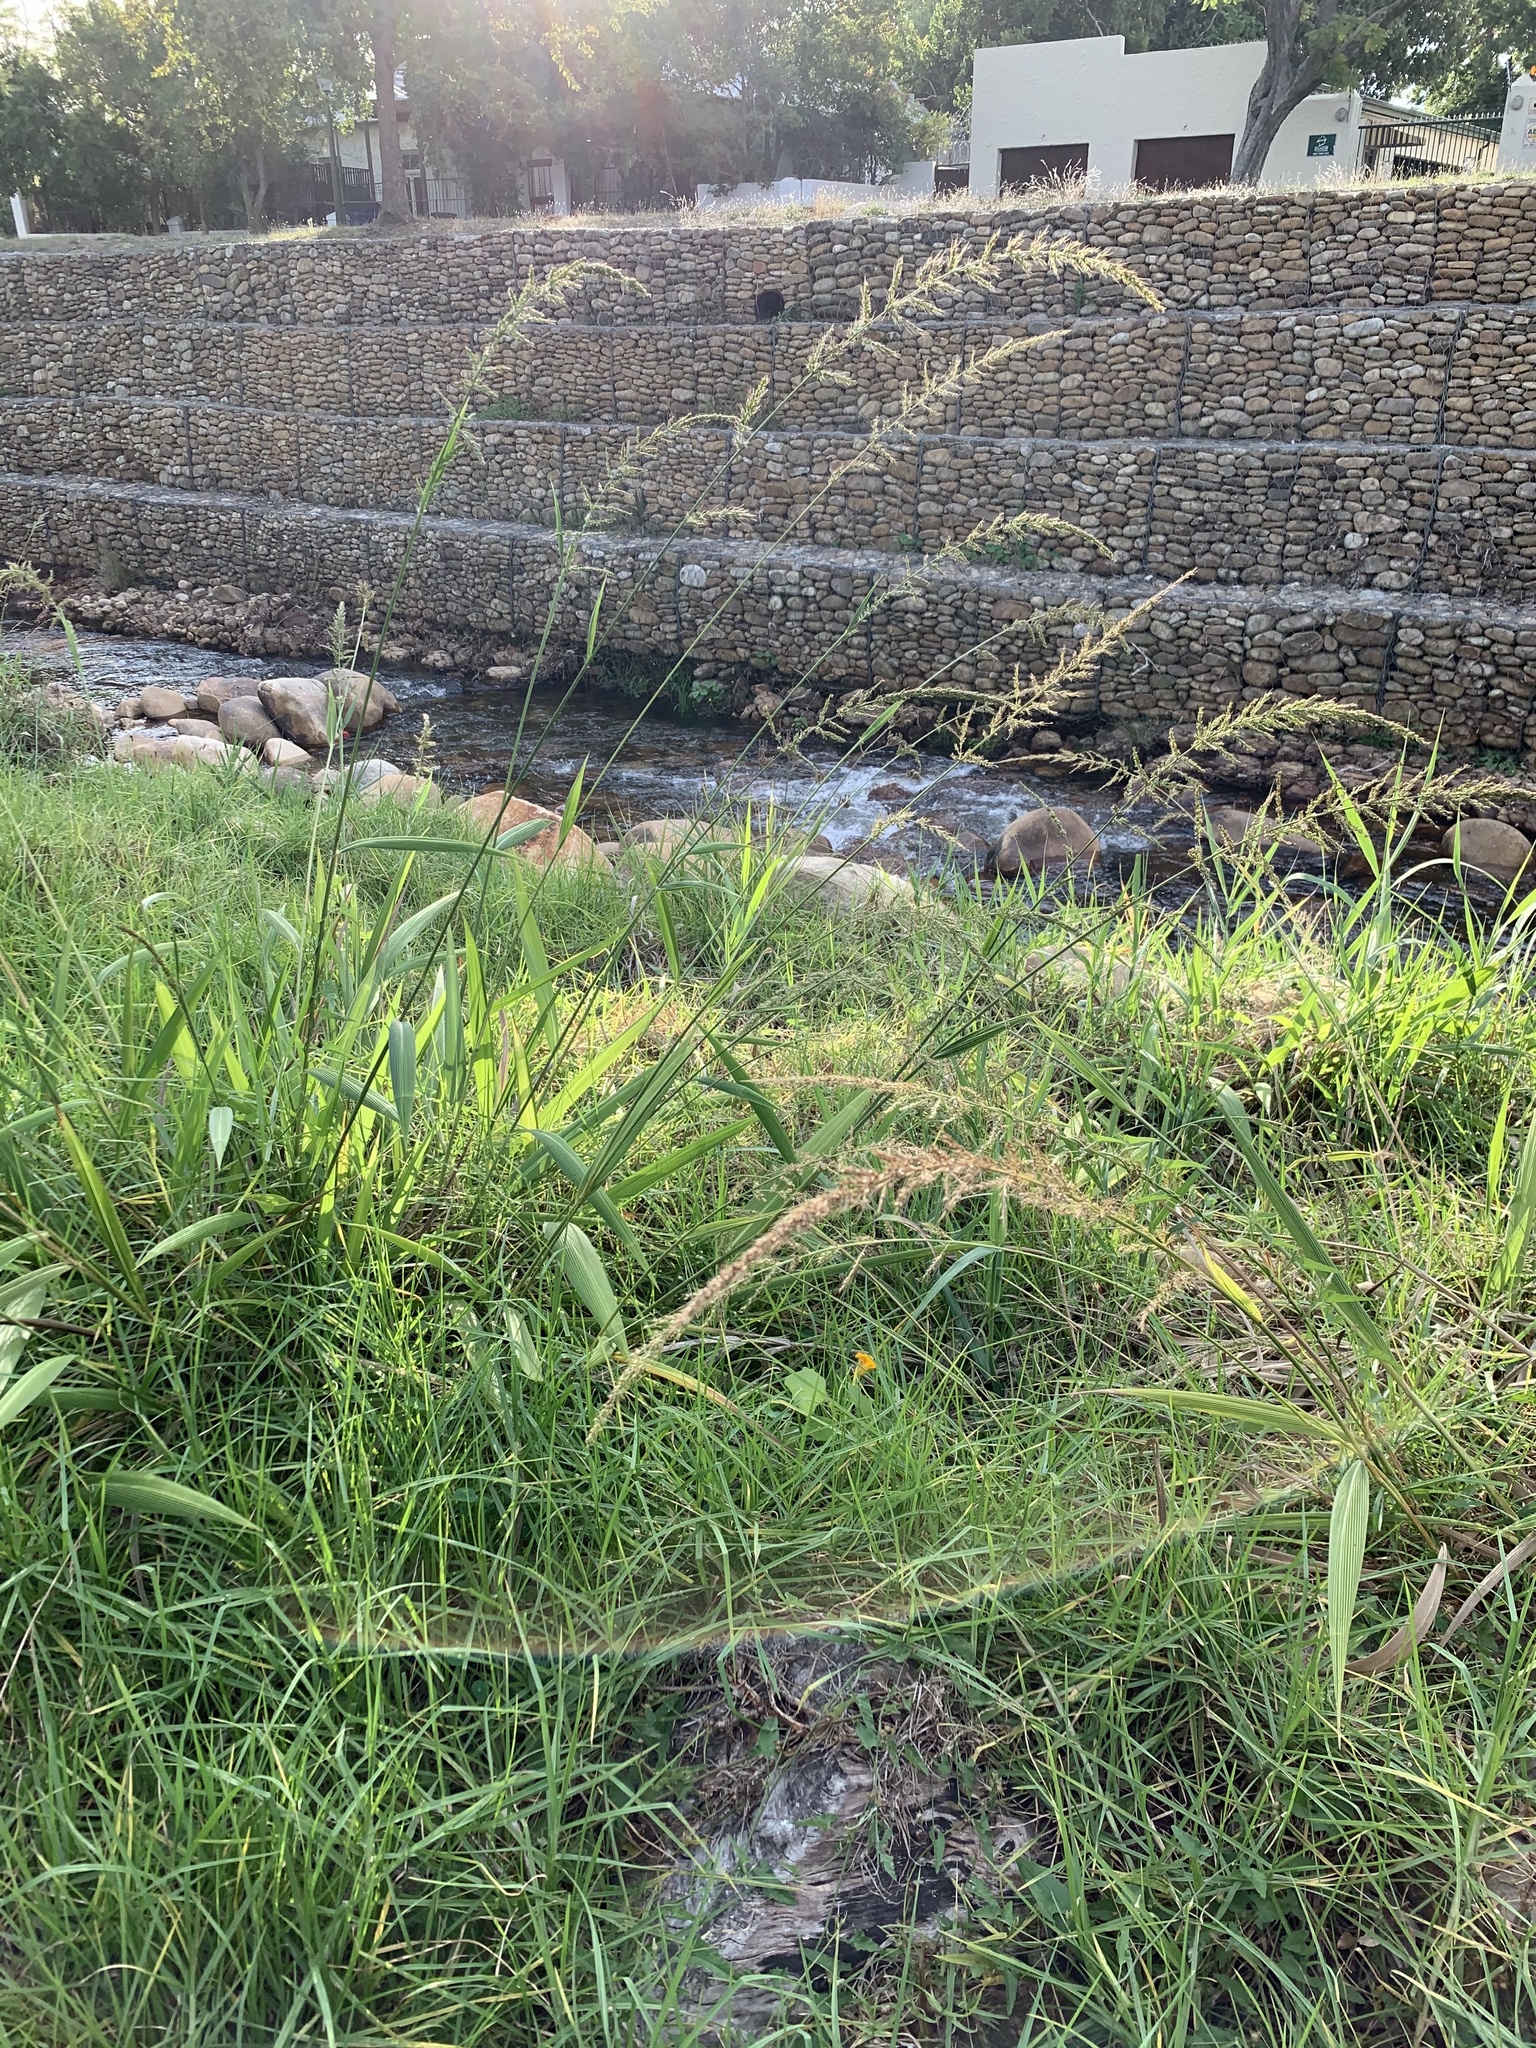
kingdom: Plantae
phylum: Tracheophyta
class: Liliopsida
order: Poales
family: Poaceae
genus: Setaria
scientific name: Setaria megaphylla
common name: Bigleaf bristlegrass
